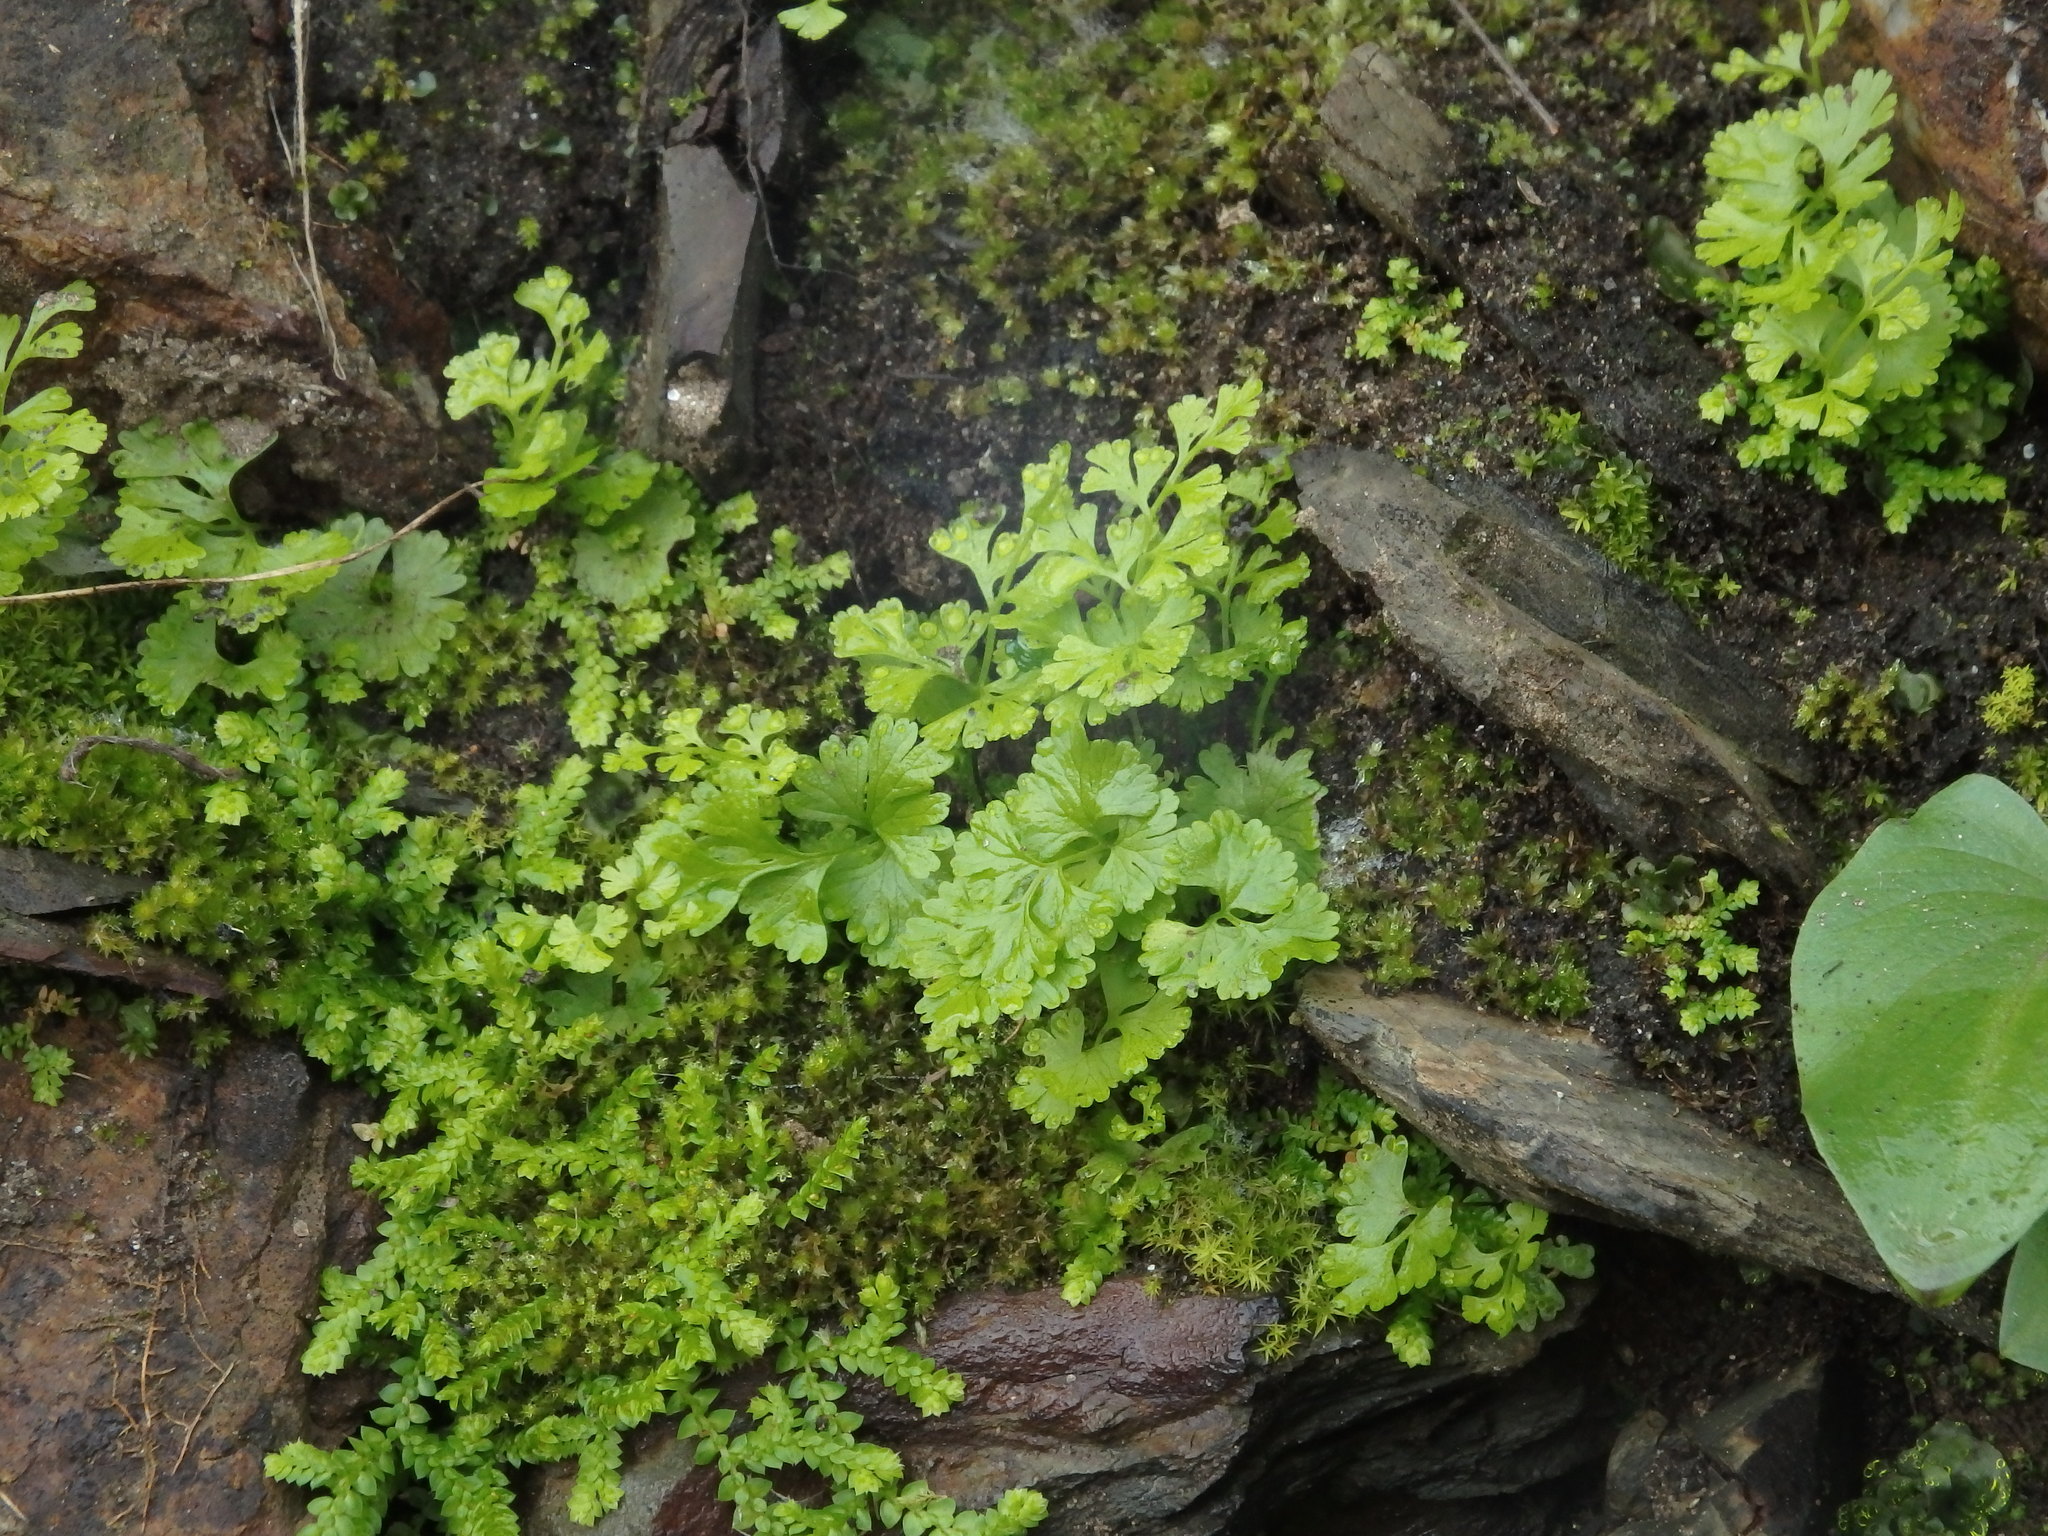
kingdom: Plantae
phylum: Tracheophyta
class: Polypodiopsida
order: Polypodiales
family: Pteridaceae
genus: Anogramma
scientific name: Anogramma leptophylla
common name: Jersey fern
